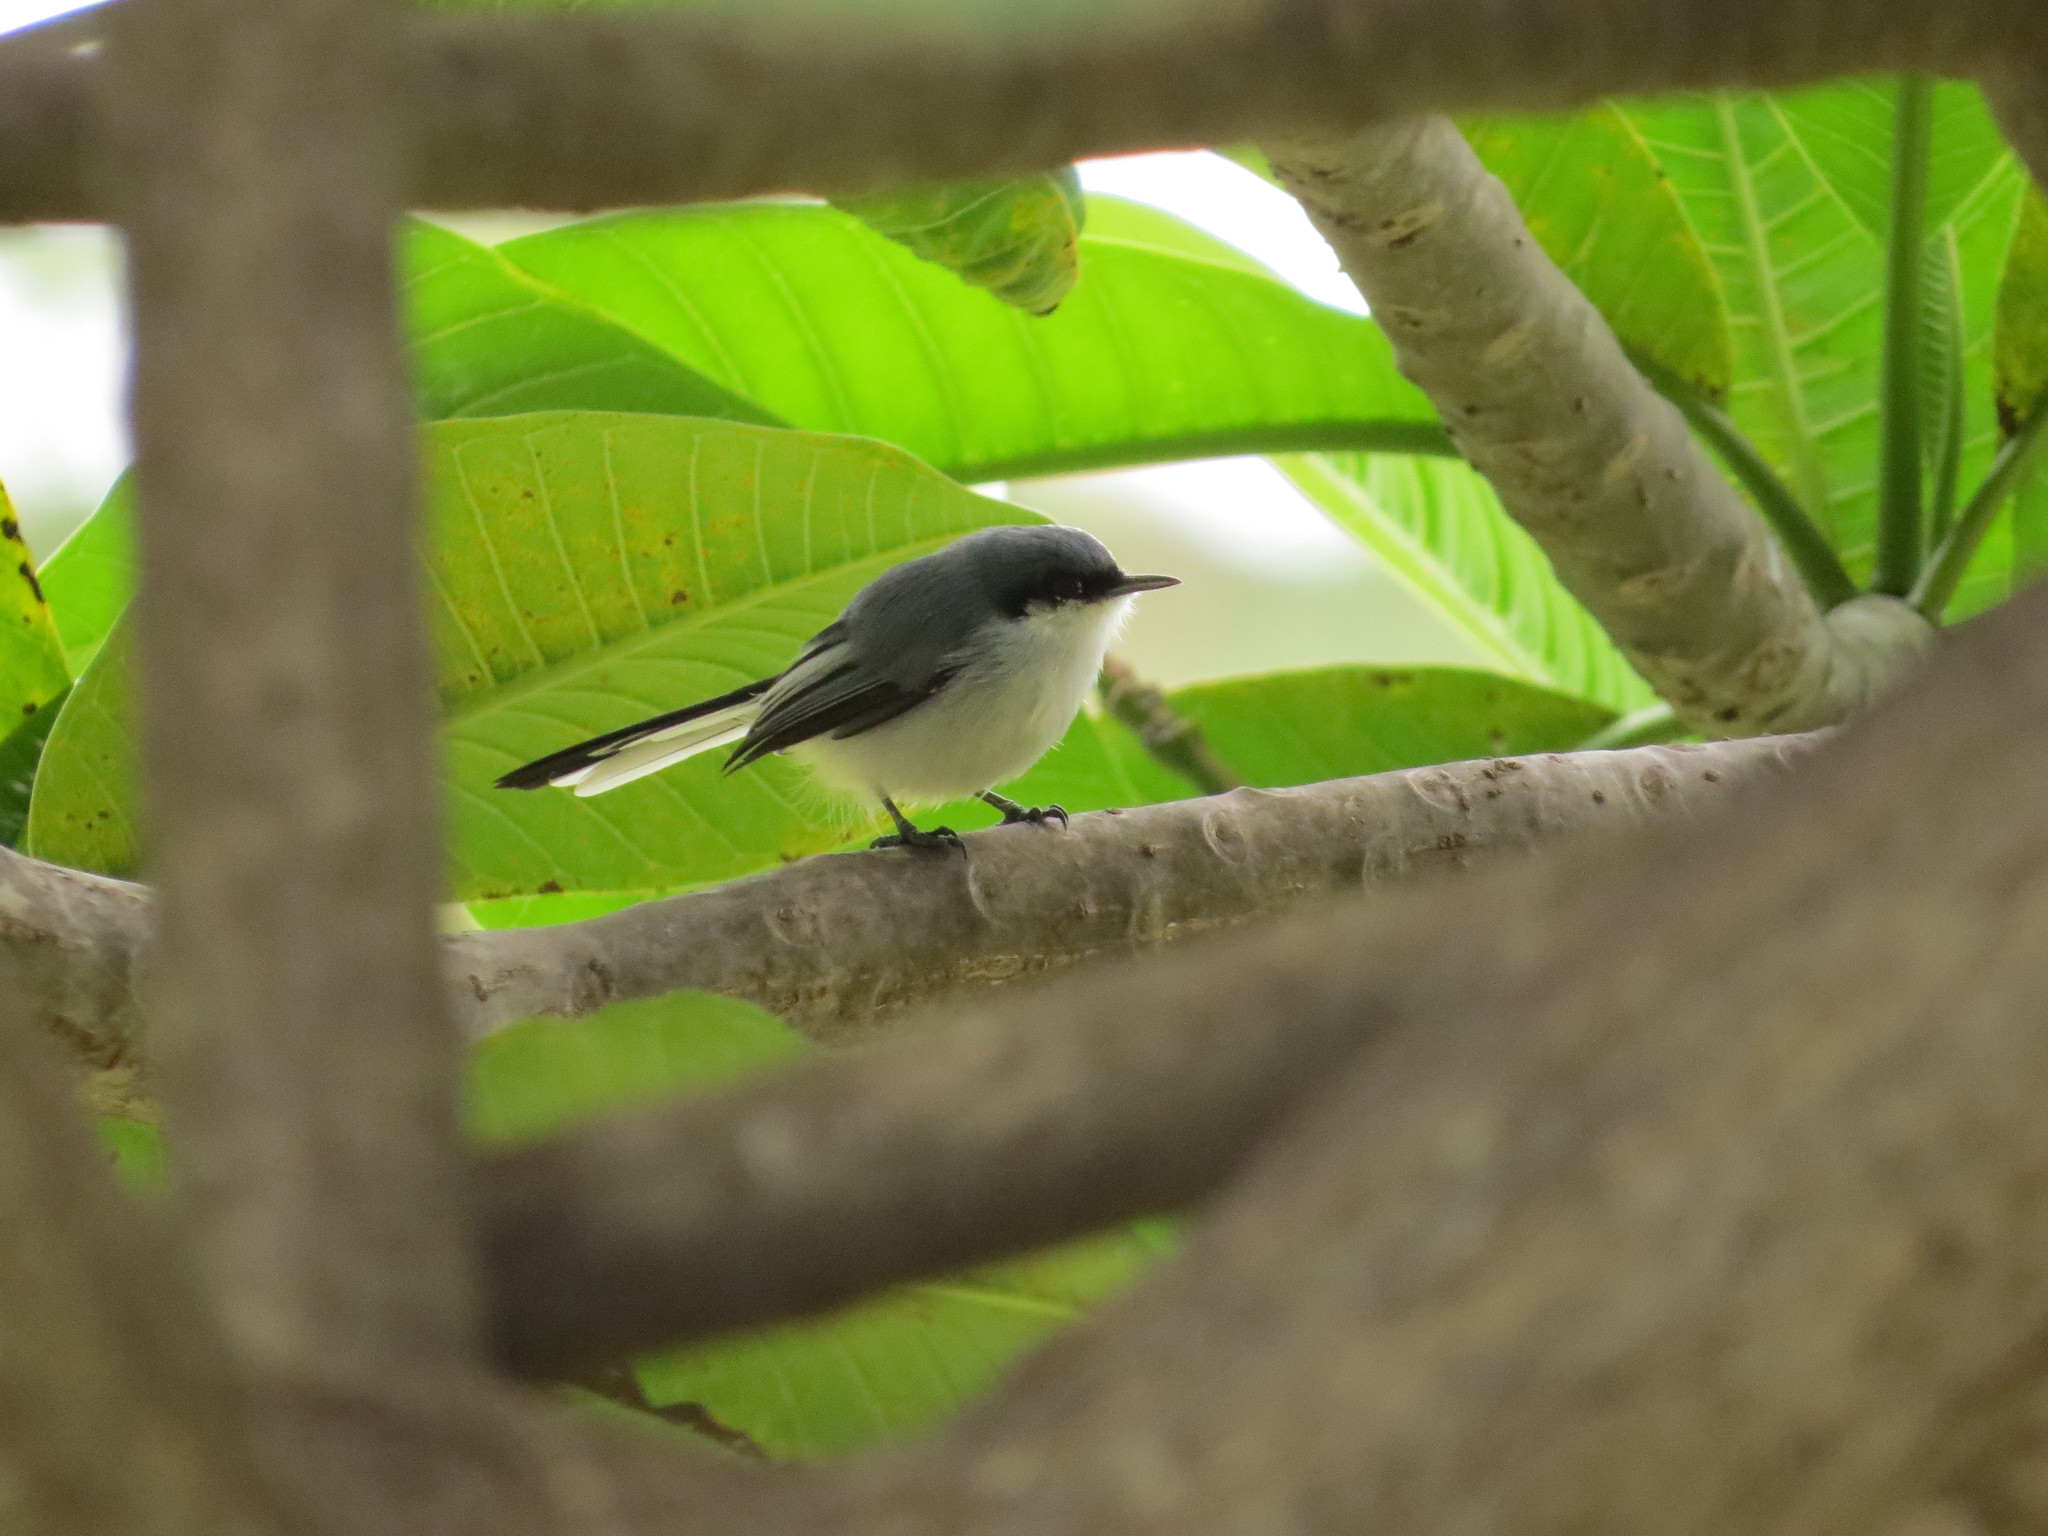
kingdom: Animalia
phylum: Chordata
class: Aves
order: Passeriformes
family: Polioptilidae
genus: Polioptila
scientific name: Polioptila dumicola
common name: Masked gnatcatcher
